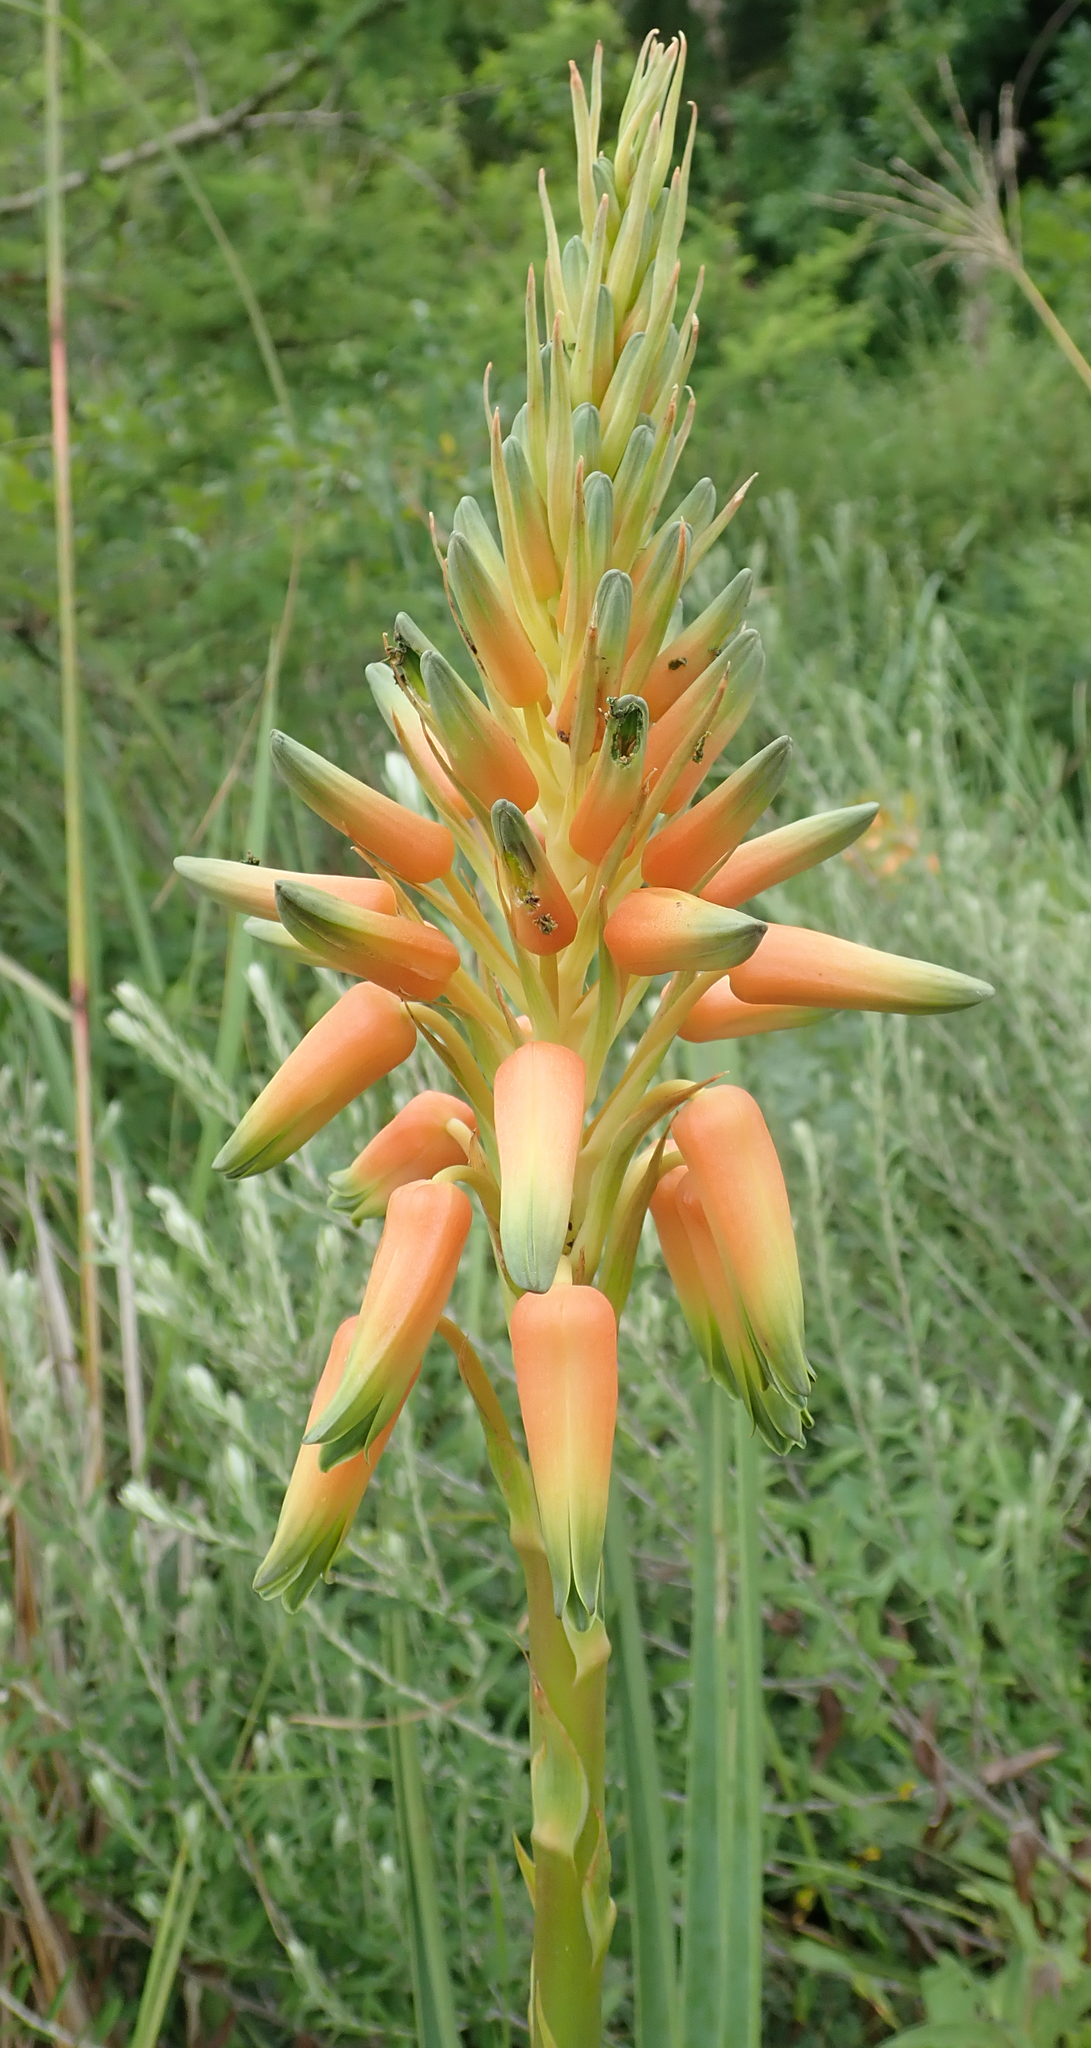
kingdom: Plantae
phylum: Tracheophyta
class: Liliopsida
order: Asparagales
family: Asphodelaceae
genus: Aloe
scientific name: Aloe cooperi
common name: Cooper's aloe
